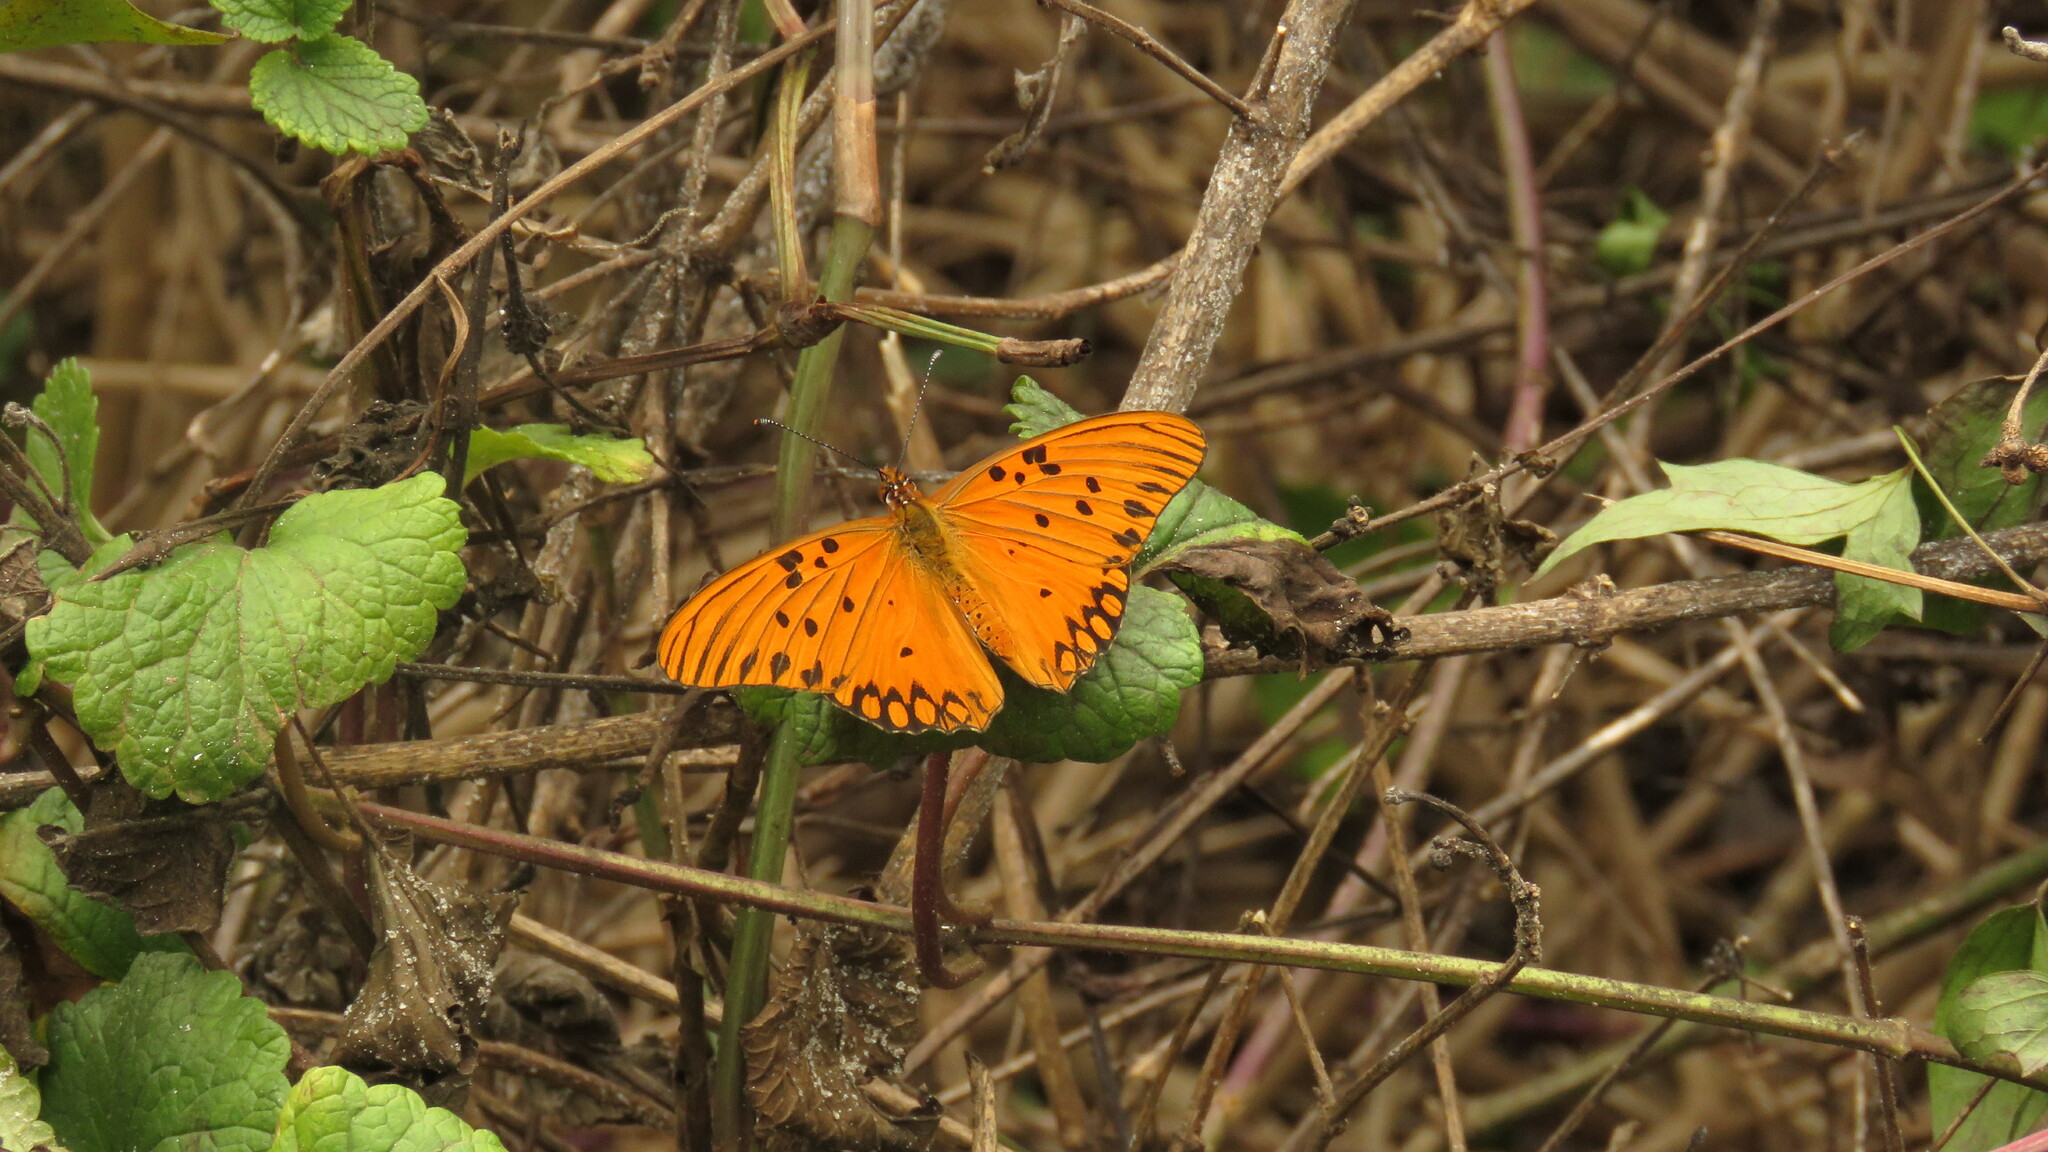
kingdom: Animalia
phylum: Arthropoda
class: Insecta
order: Lepidoptera
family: Nymphalidae
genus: Dione
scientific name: Dione vanillae
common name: Gulf fritillary
